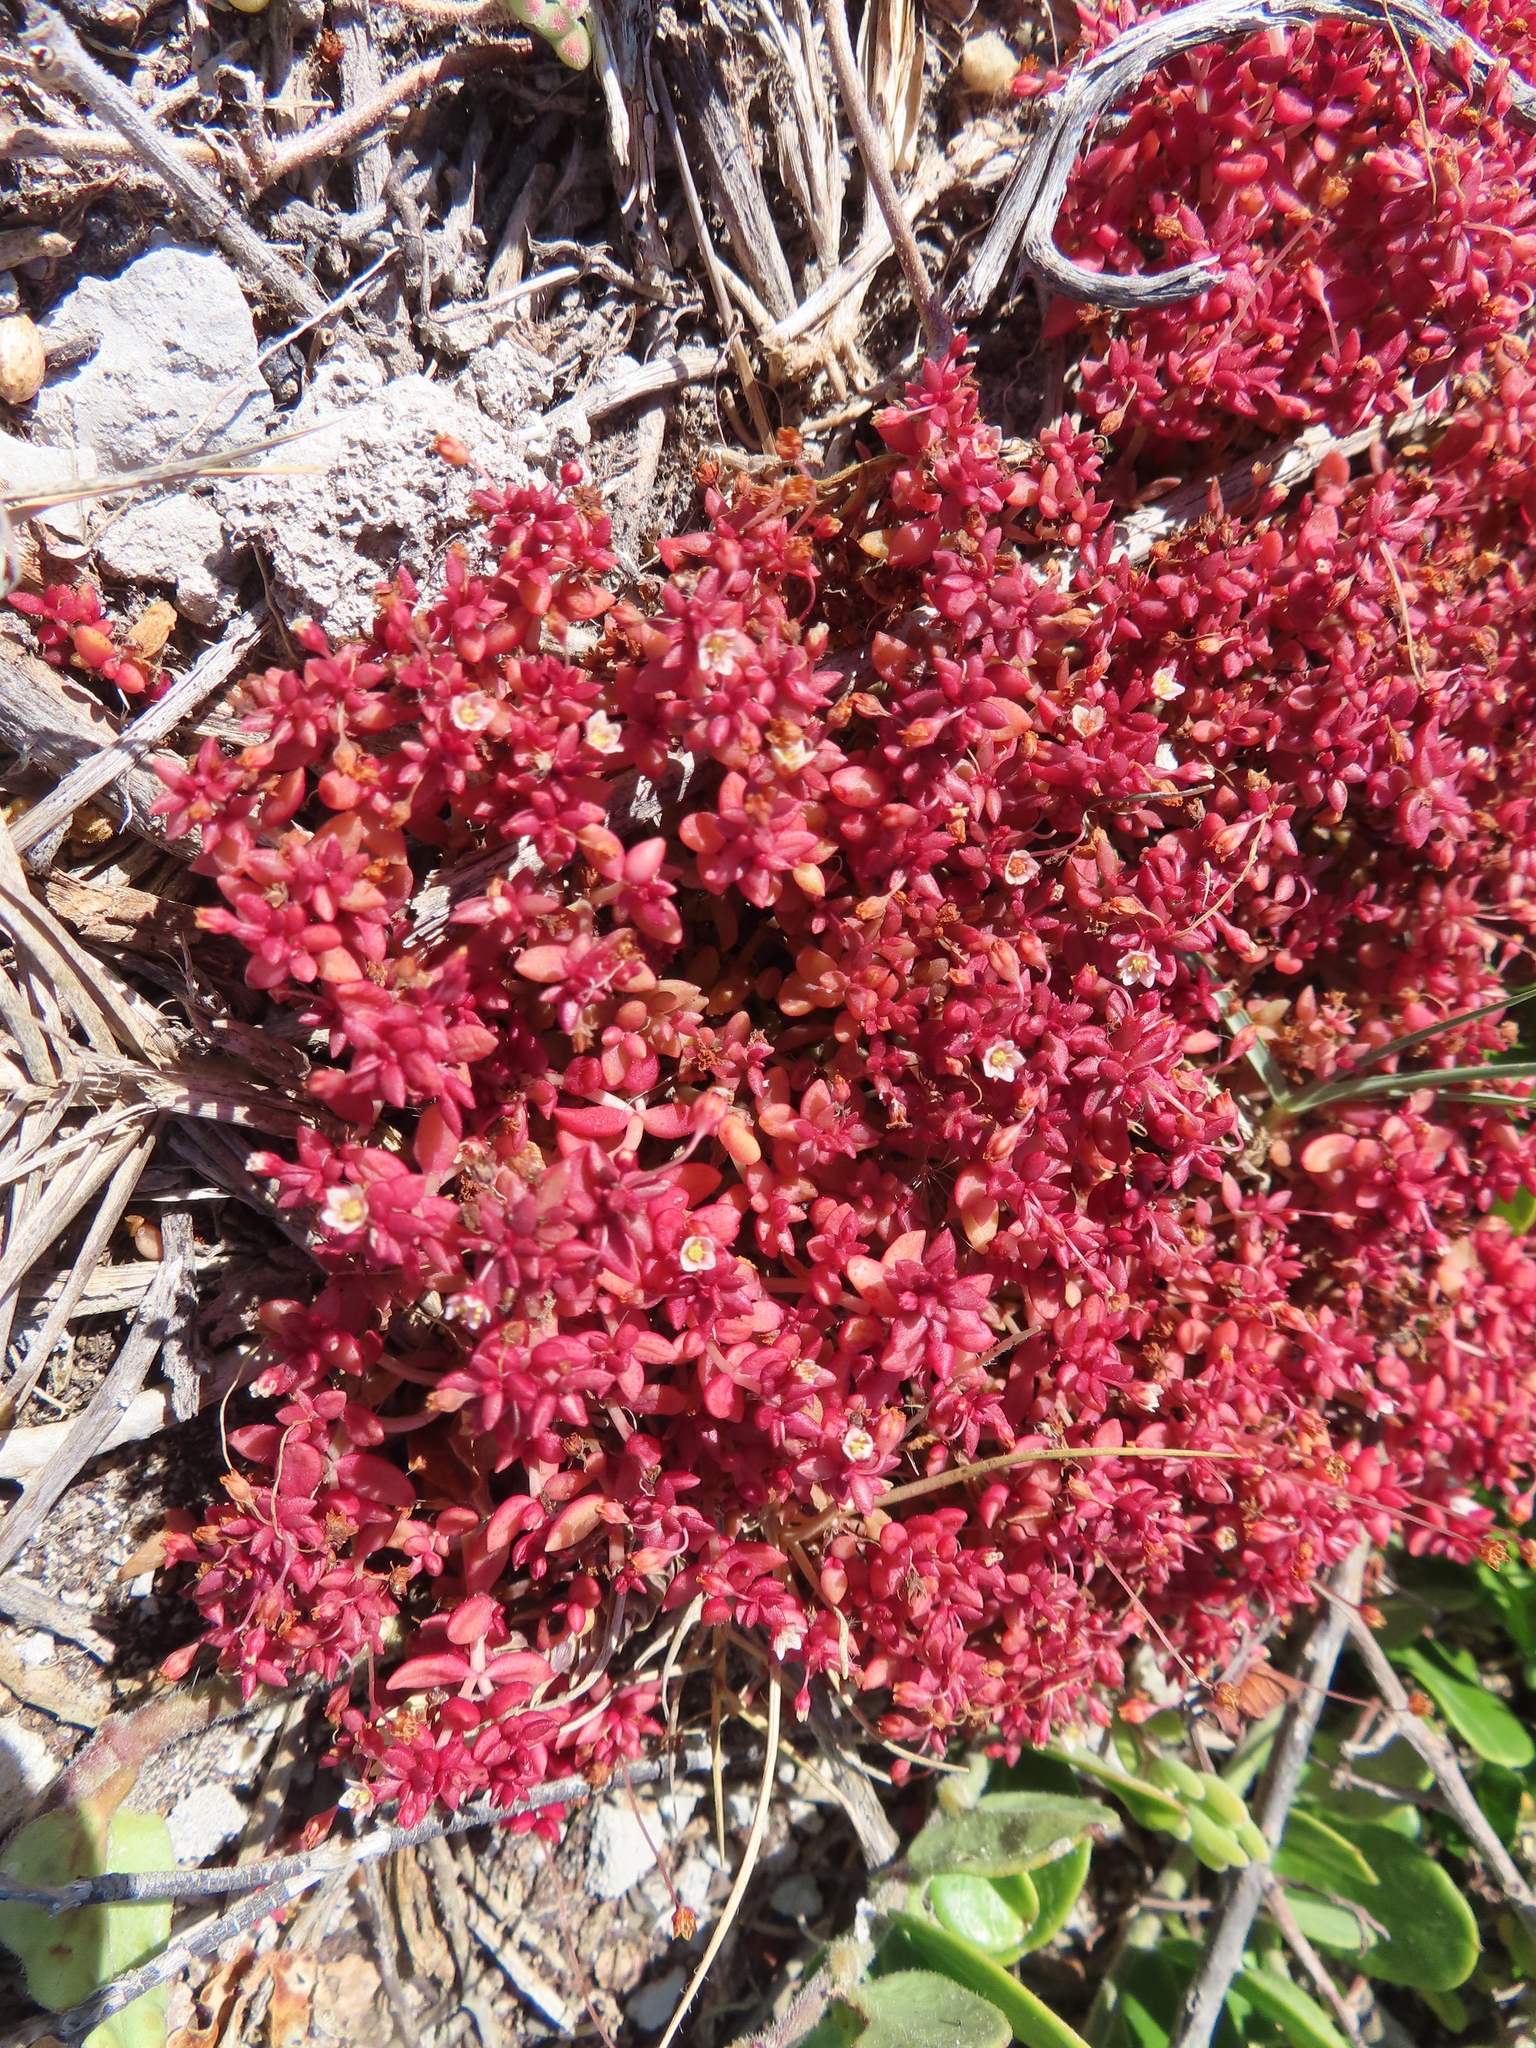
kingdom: Plantae
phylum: Tracheophyta
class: Magnoliopsida
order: Saxifragales
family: Crassulaceae
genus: Crassula
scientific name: Crassula expansa
